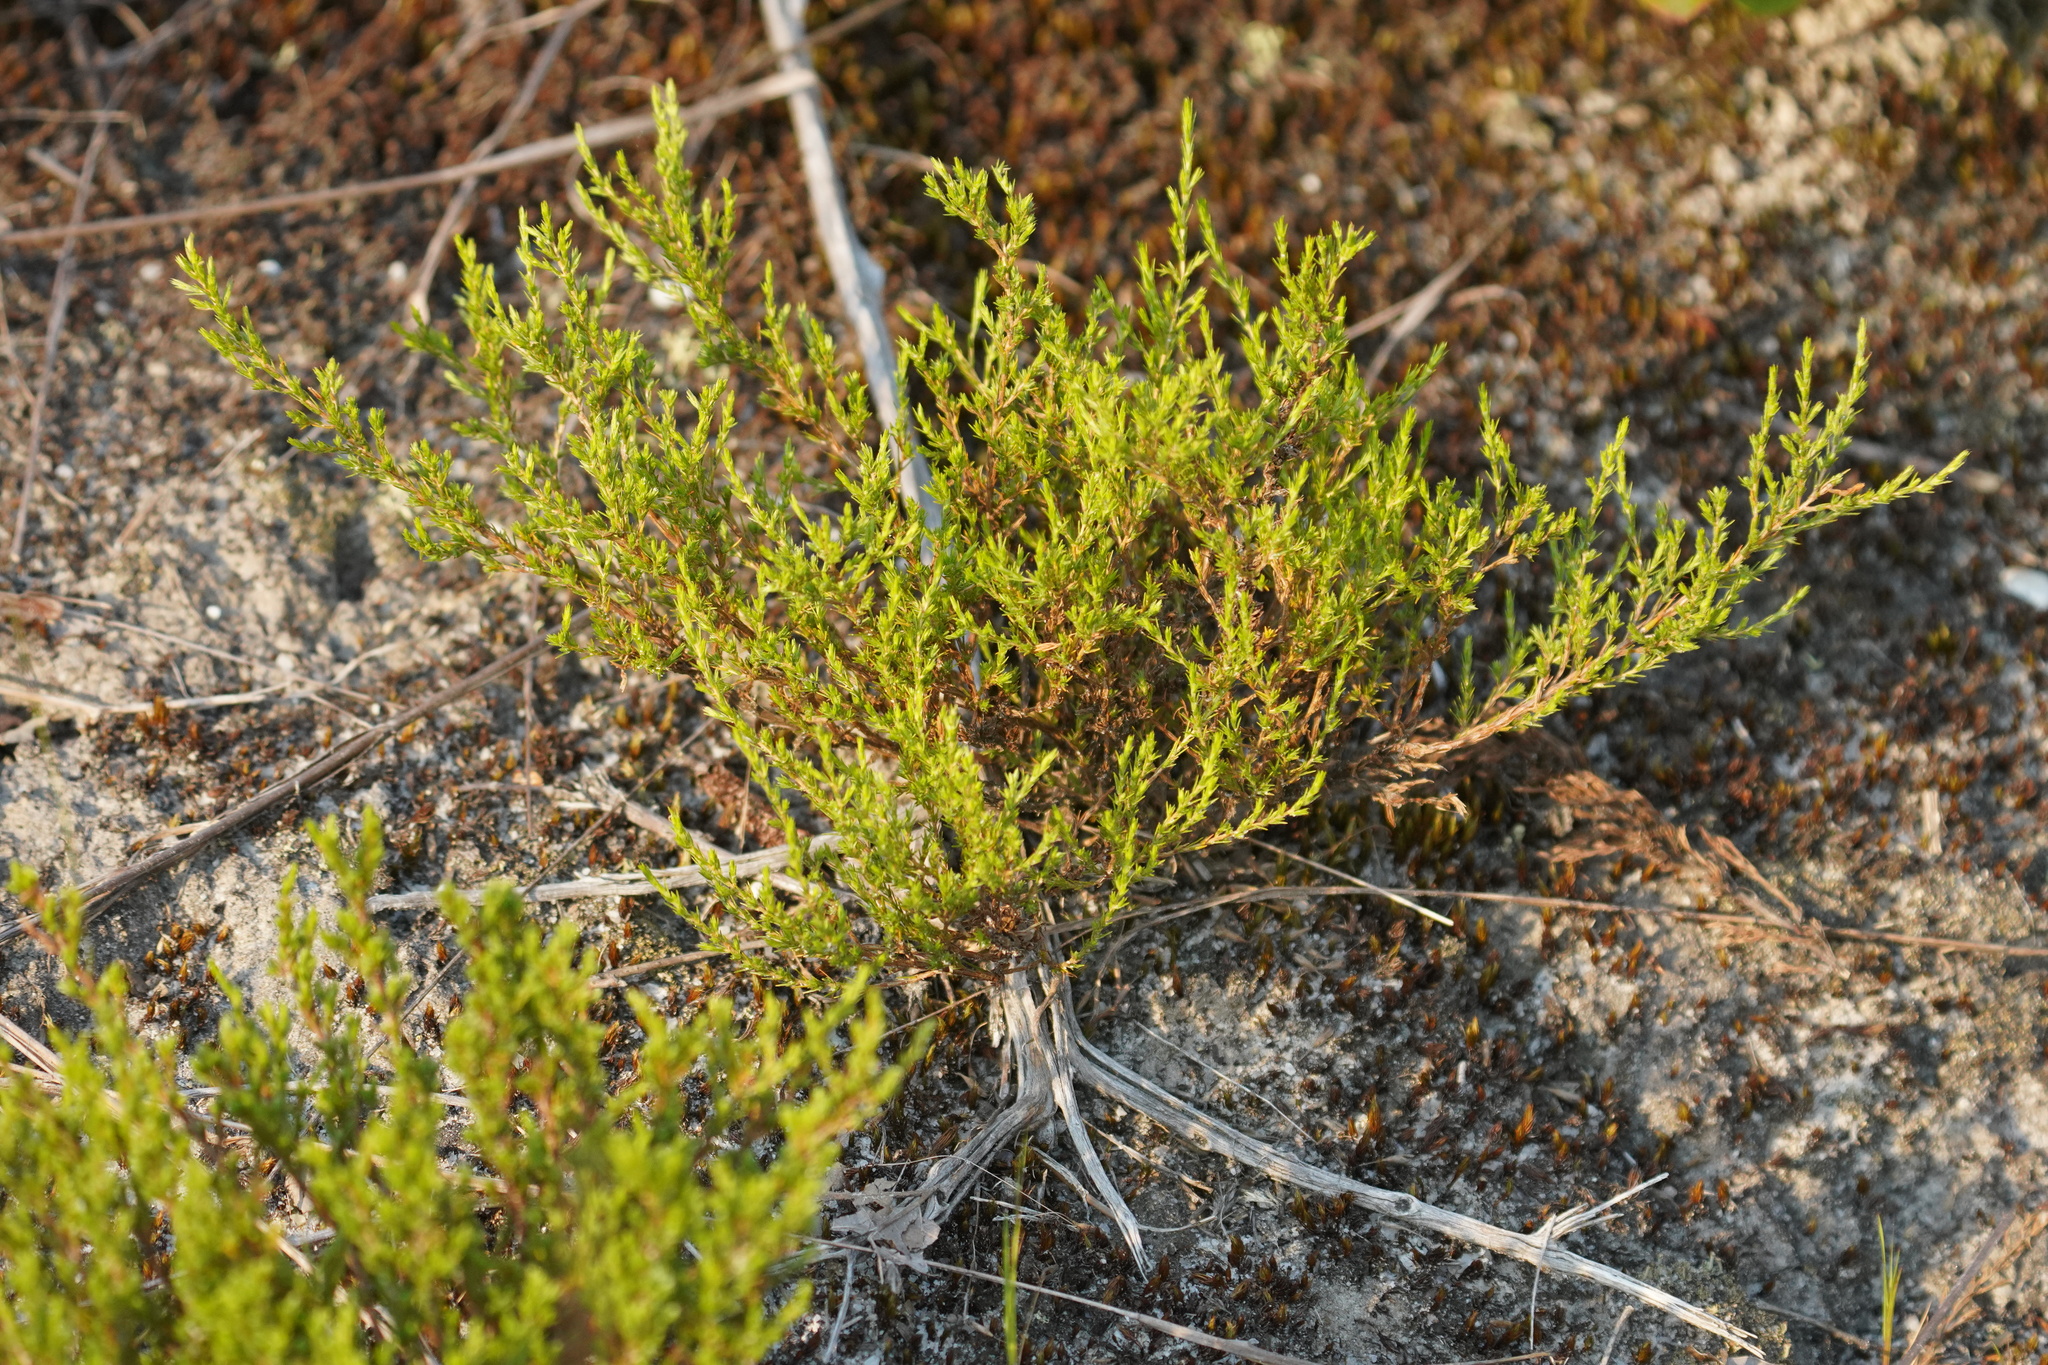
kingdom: Plantae
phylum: Tracheophyta
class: Magnoliopsida
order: Malvales
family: Cistaceae
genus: Hudsonia
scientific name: Hudsonia ericoides
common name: Golden-heather
